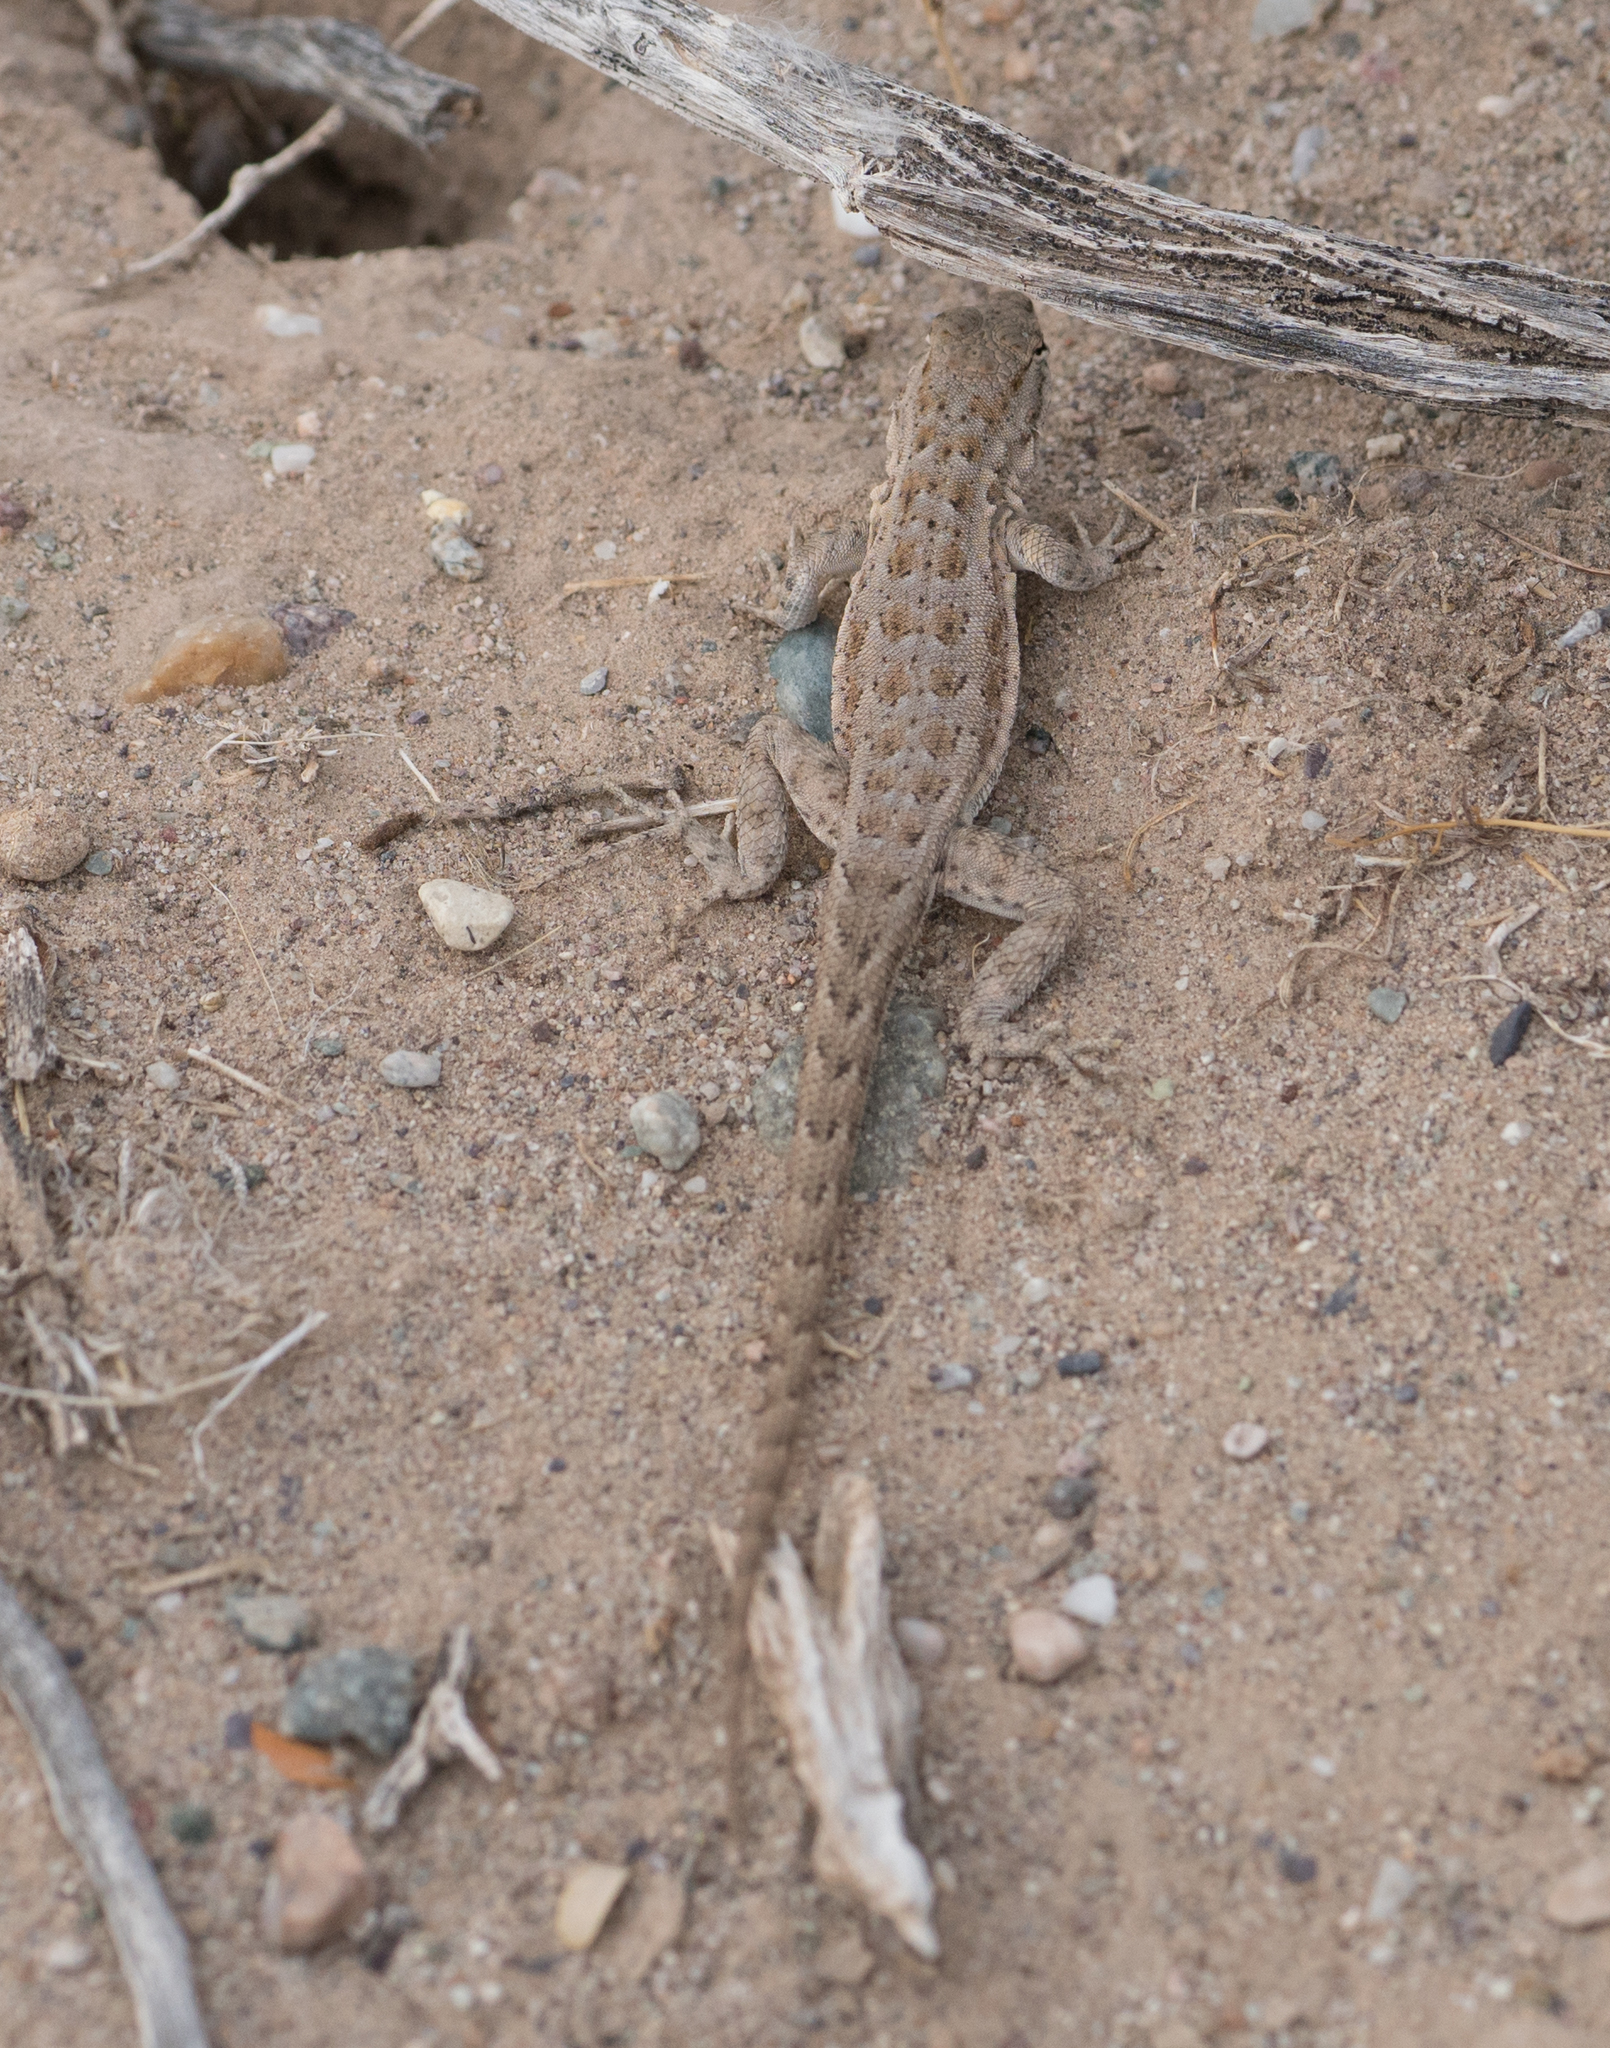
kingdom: Animalia
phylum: Chordata
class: Squamata
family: Phrynosomatidae
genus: Uta
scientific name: Uta stansburiana
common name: Side-blotched lizard
